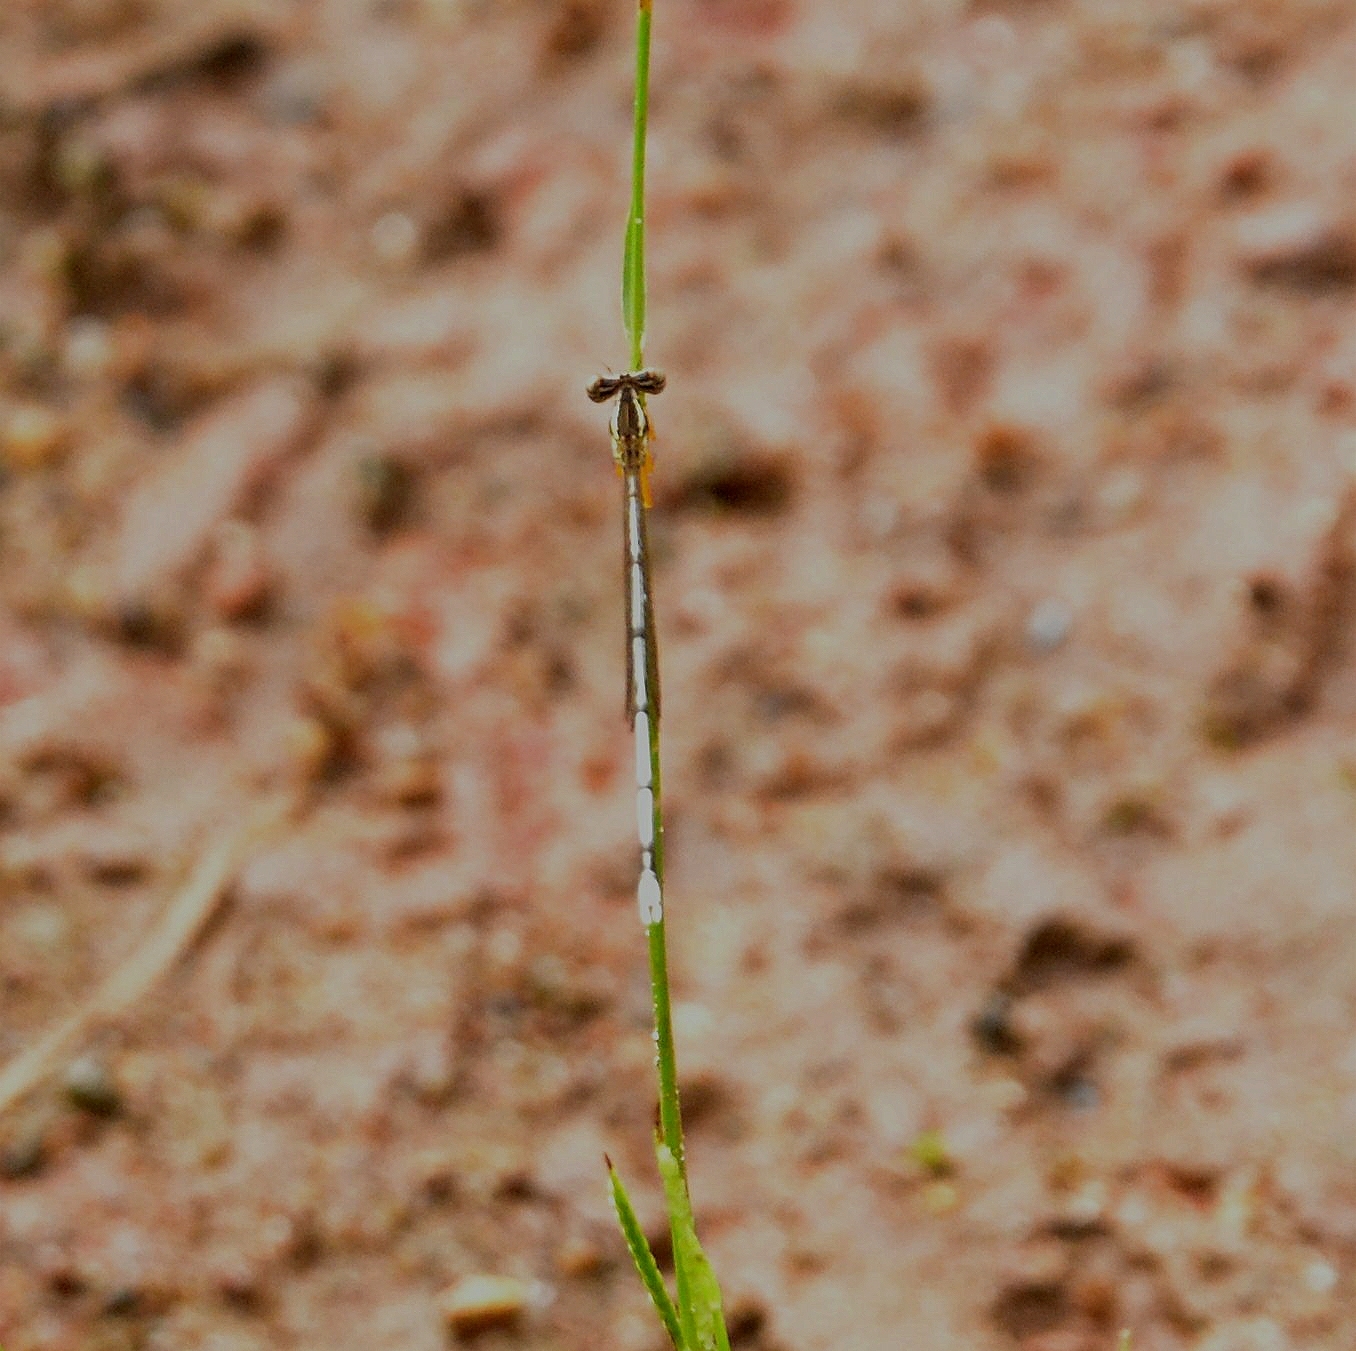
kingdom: Animalia
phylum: Arthropoda
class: Insecta
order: Odonata
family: Platycnemididae
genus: Copera
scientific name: Copera marginipes
